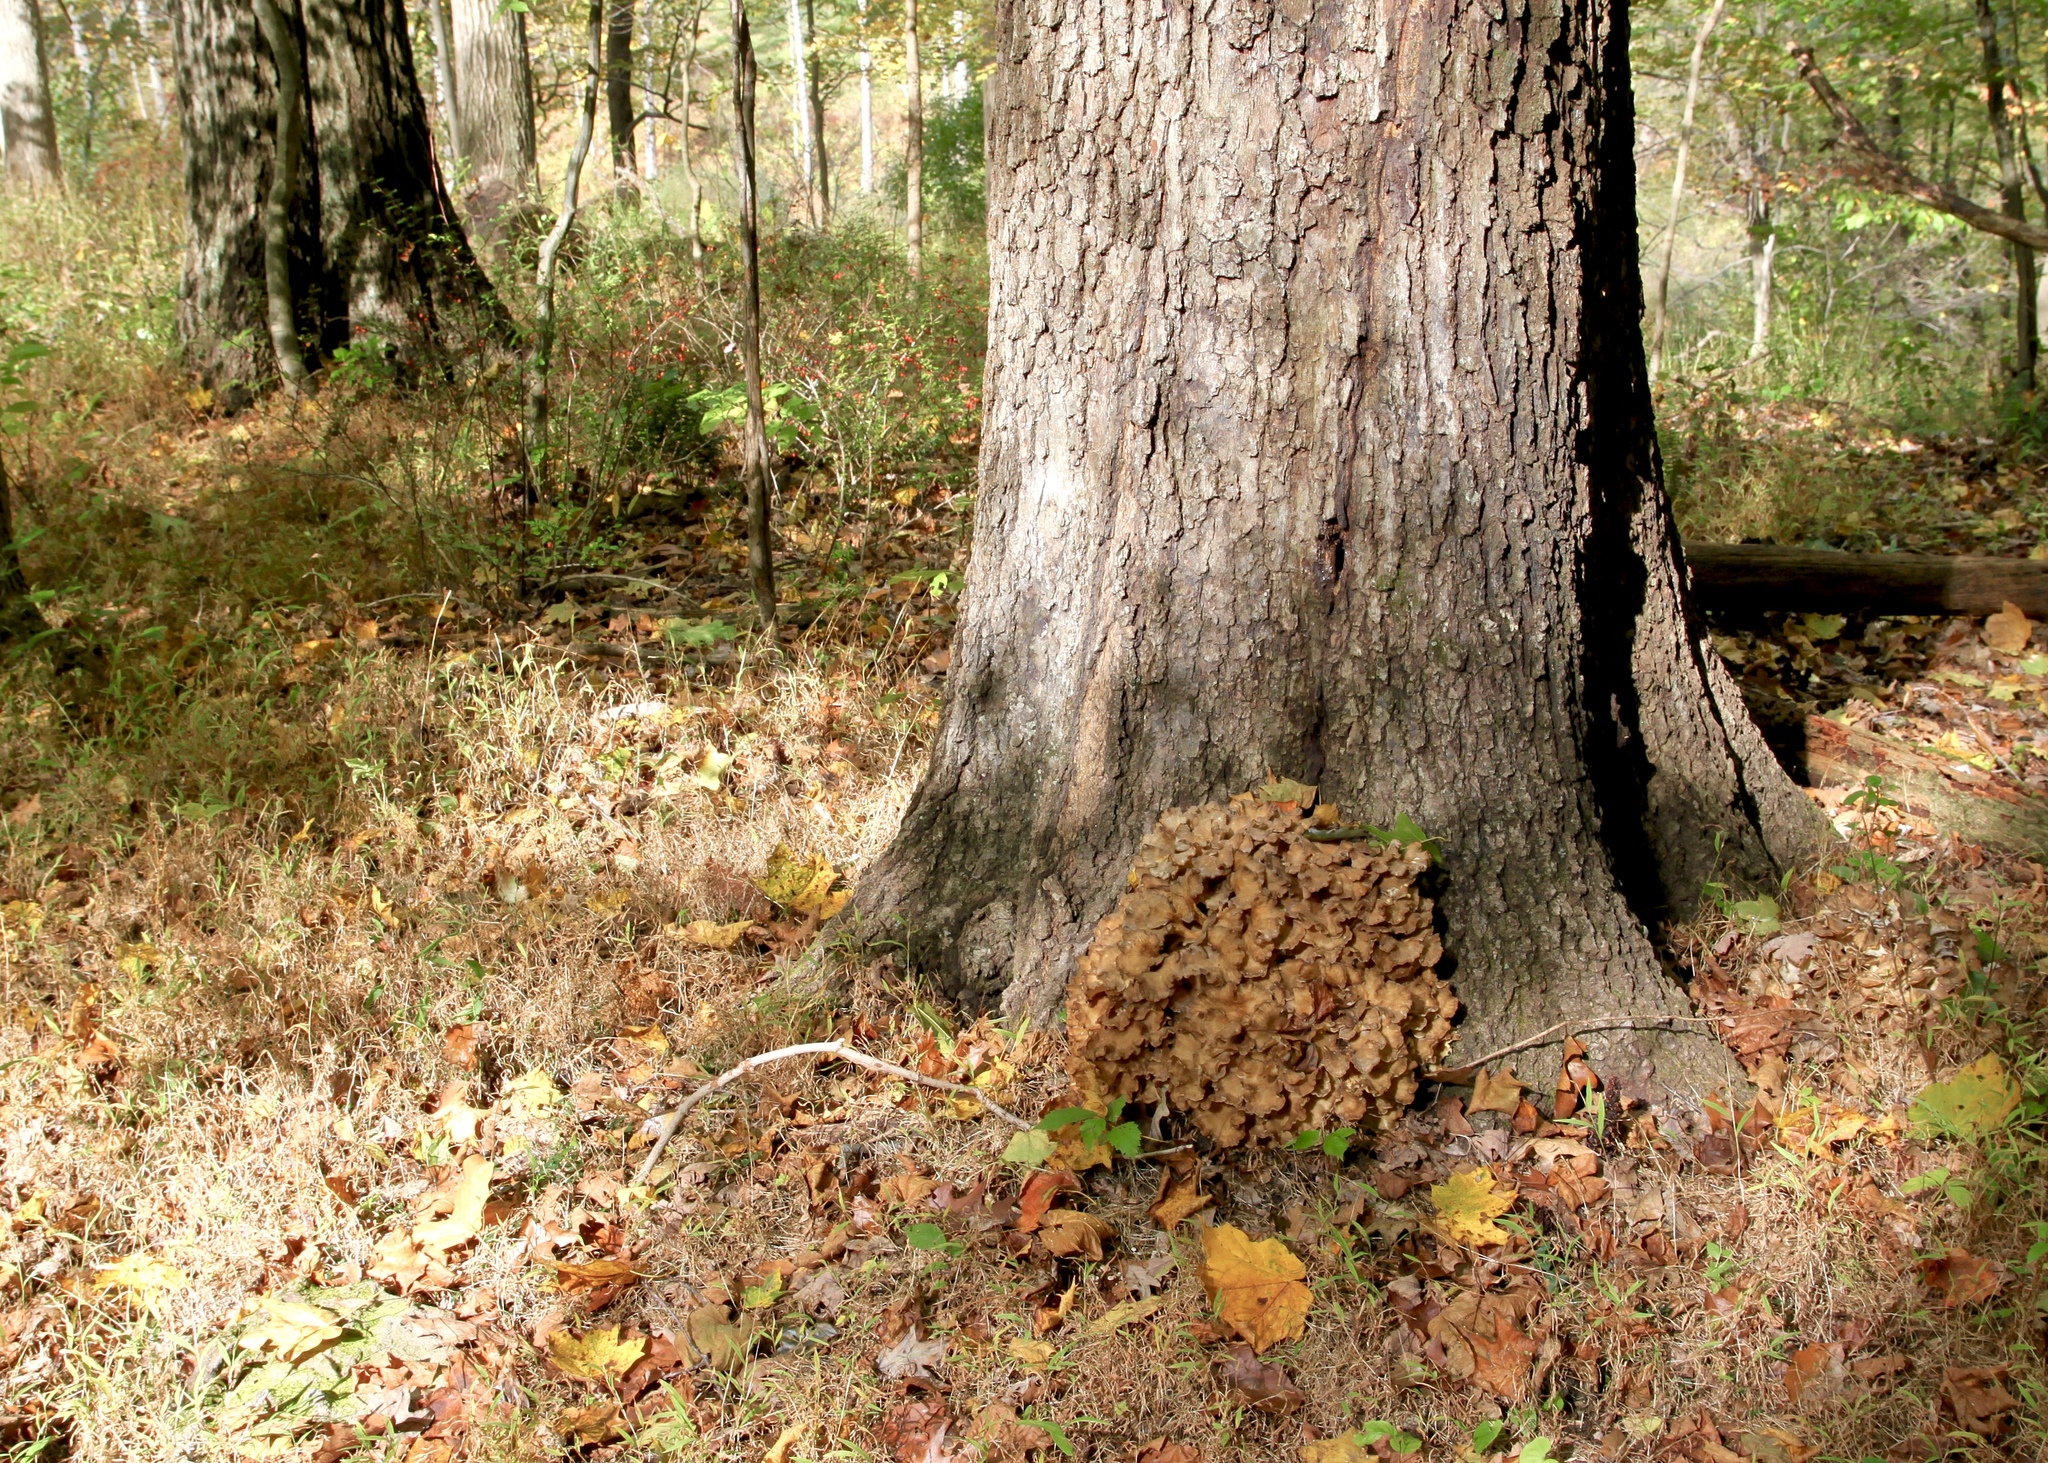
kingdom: Fungi
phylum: Basidiomycota
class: Agaricomycetes
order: Polyporales
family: Grifolaceae
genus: Grifola
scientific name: Grifola frondosa
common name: Hen of the woods
